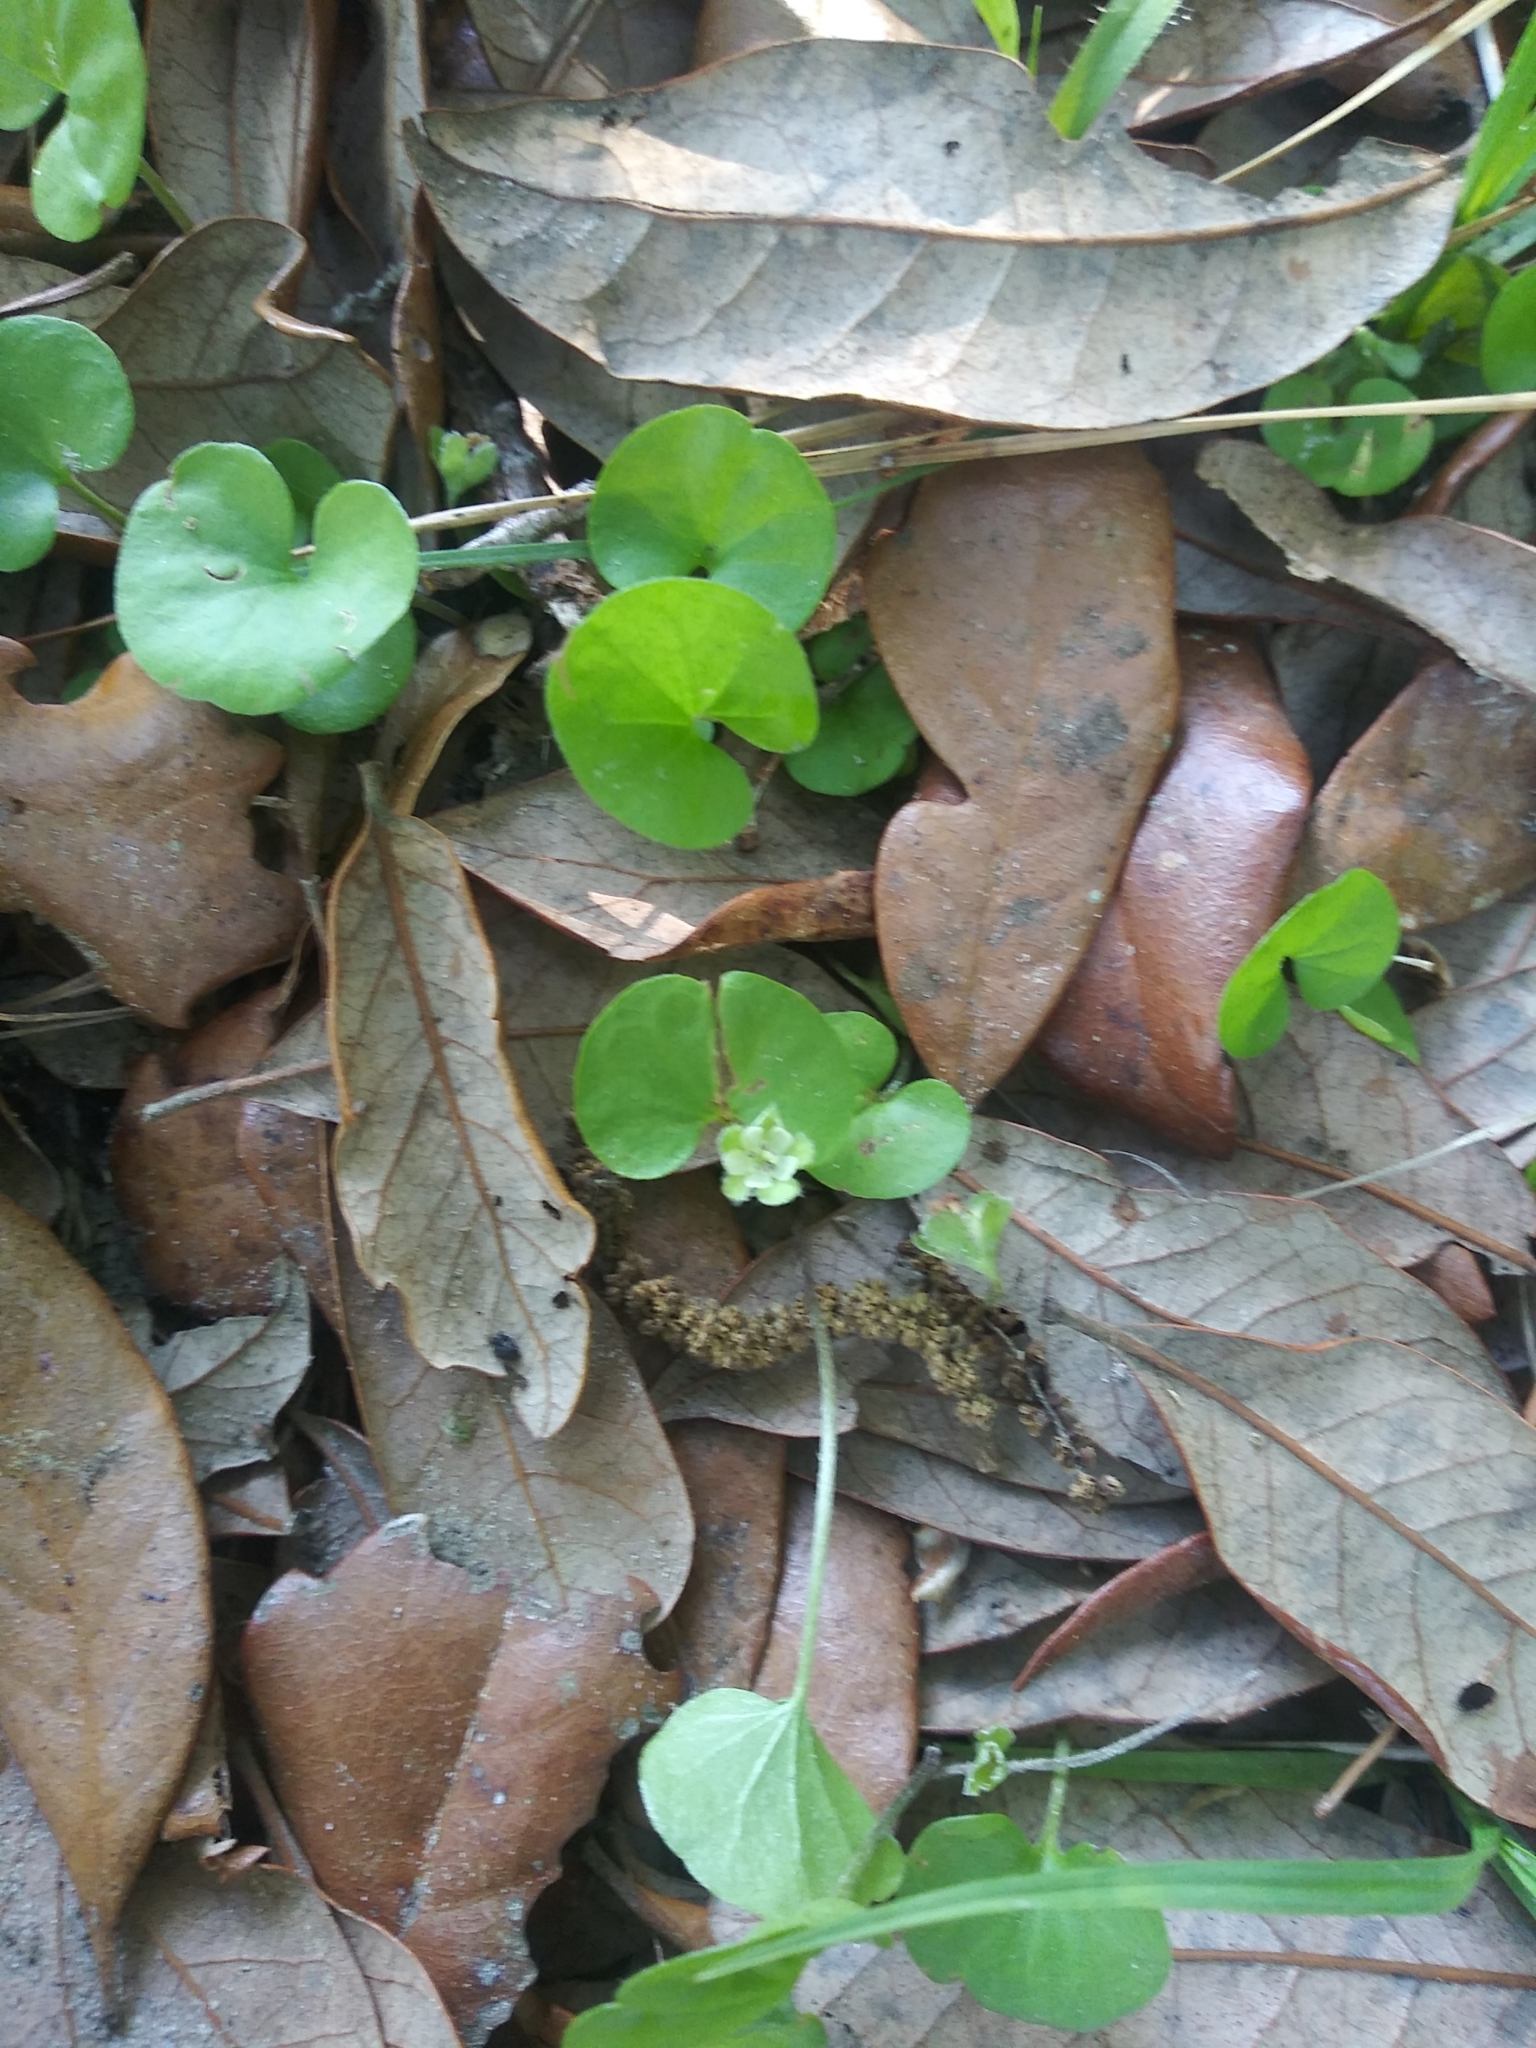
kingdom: Plantae
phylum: Tracheophyta
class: Magnoliopsida
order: Solanales
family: Convolvulaceae
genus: Dichondra
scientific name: Dichondra carolinensis
